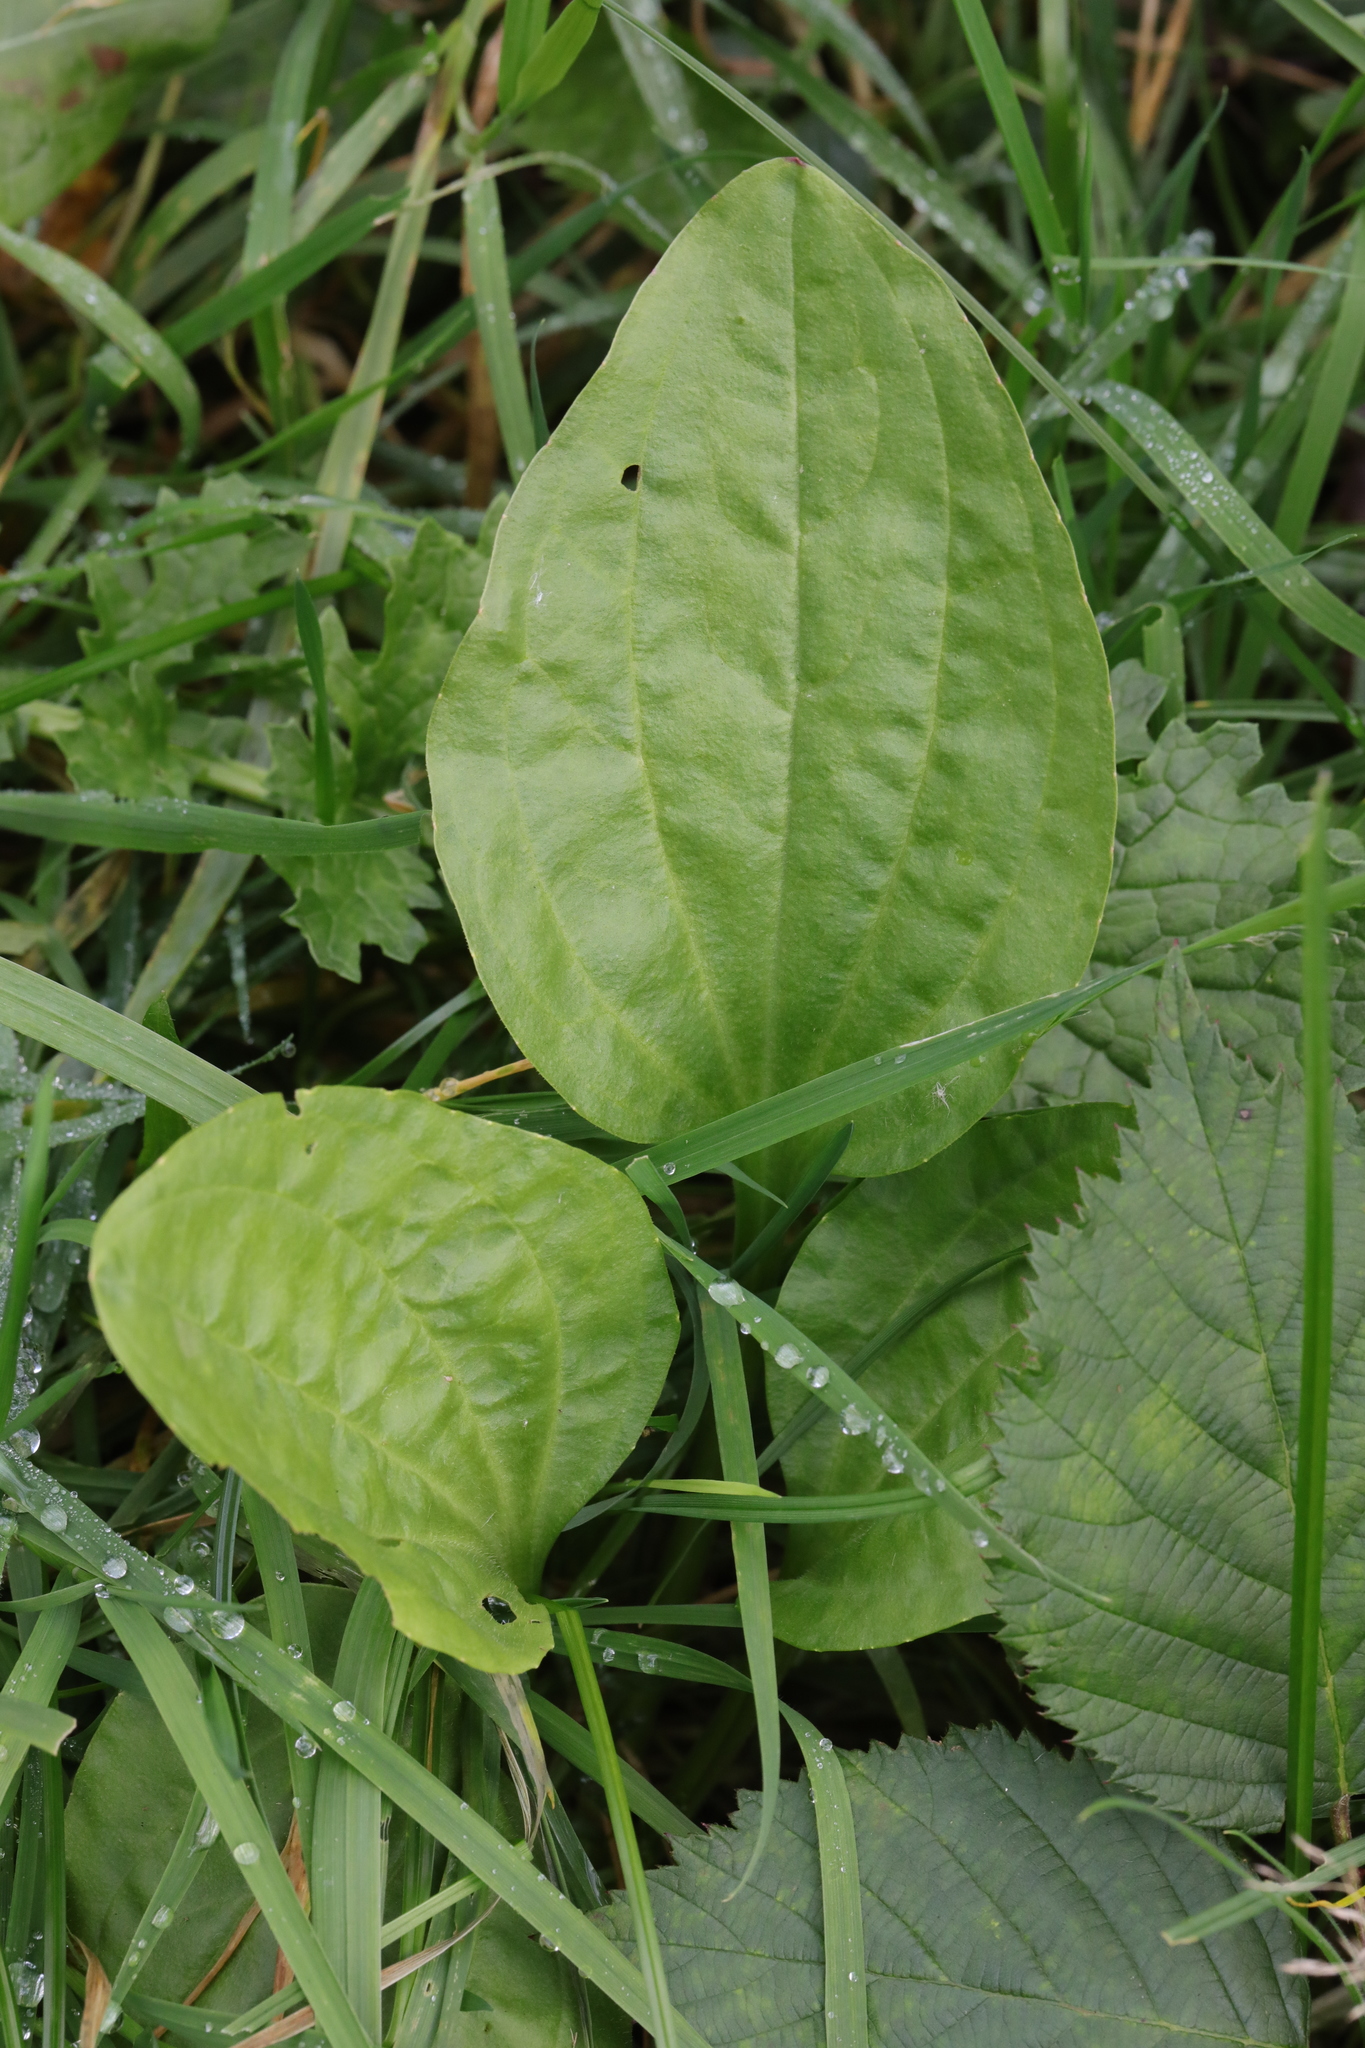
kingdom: Plantae
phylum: Tracheophyta
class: Magnoliopsida
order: Lamiales
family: Plantaginaceae
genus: Plantago
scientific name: Plantago major
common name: Common plantain
